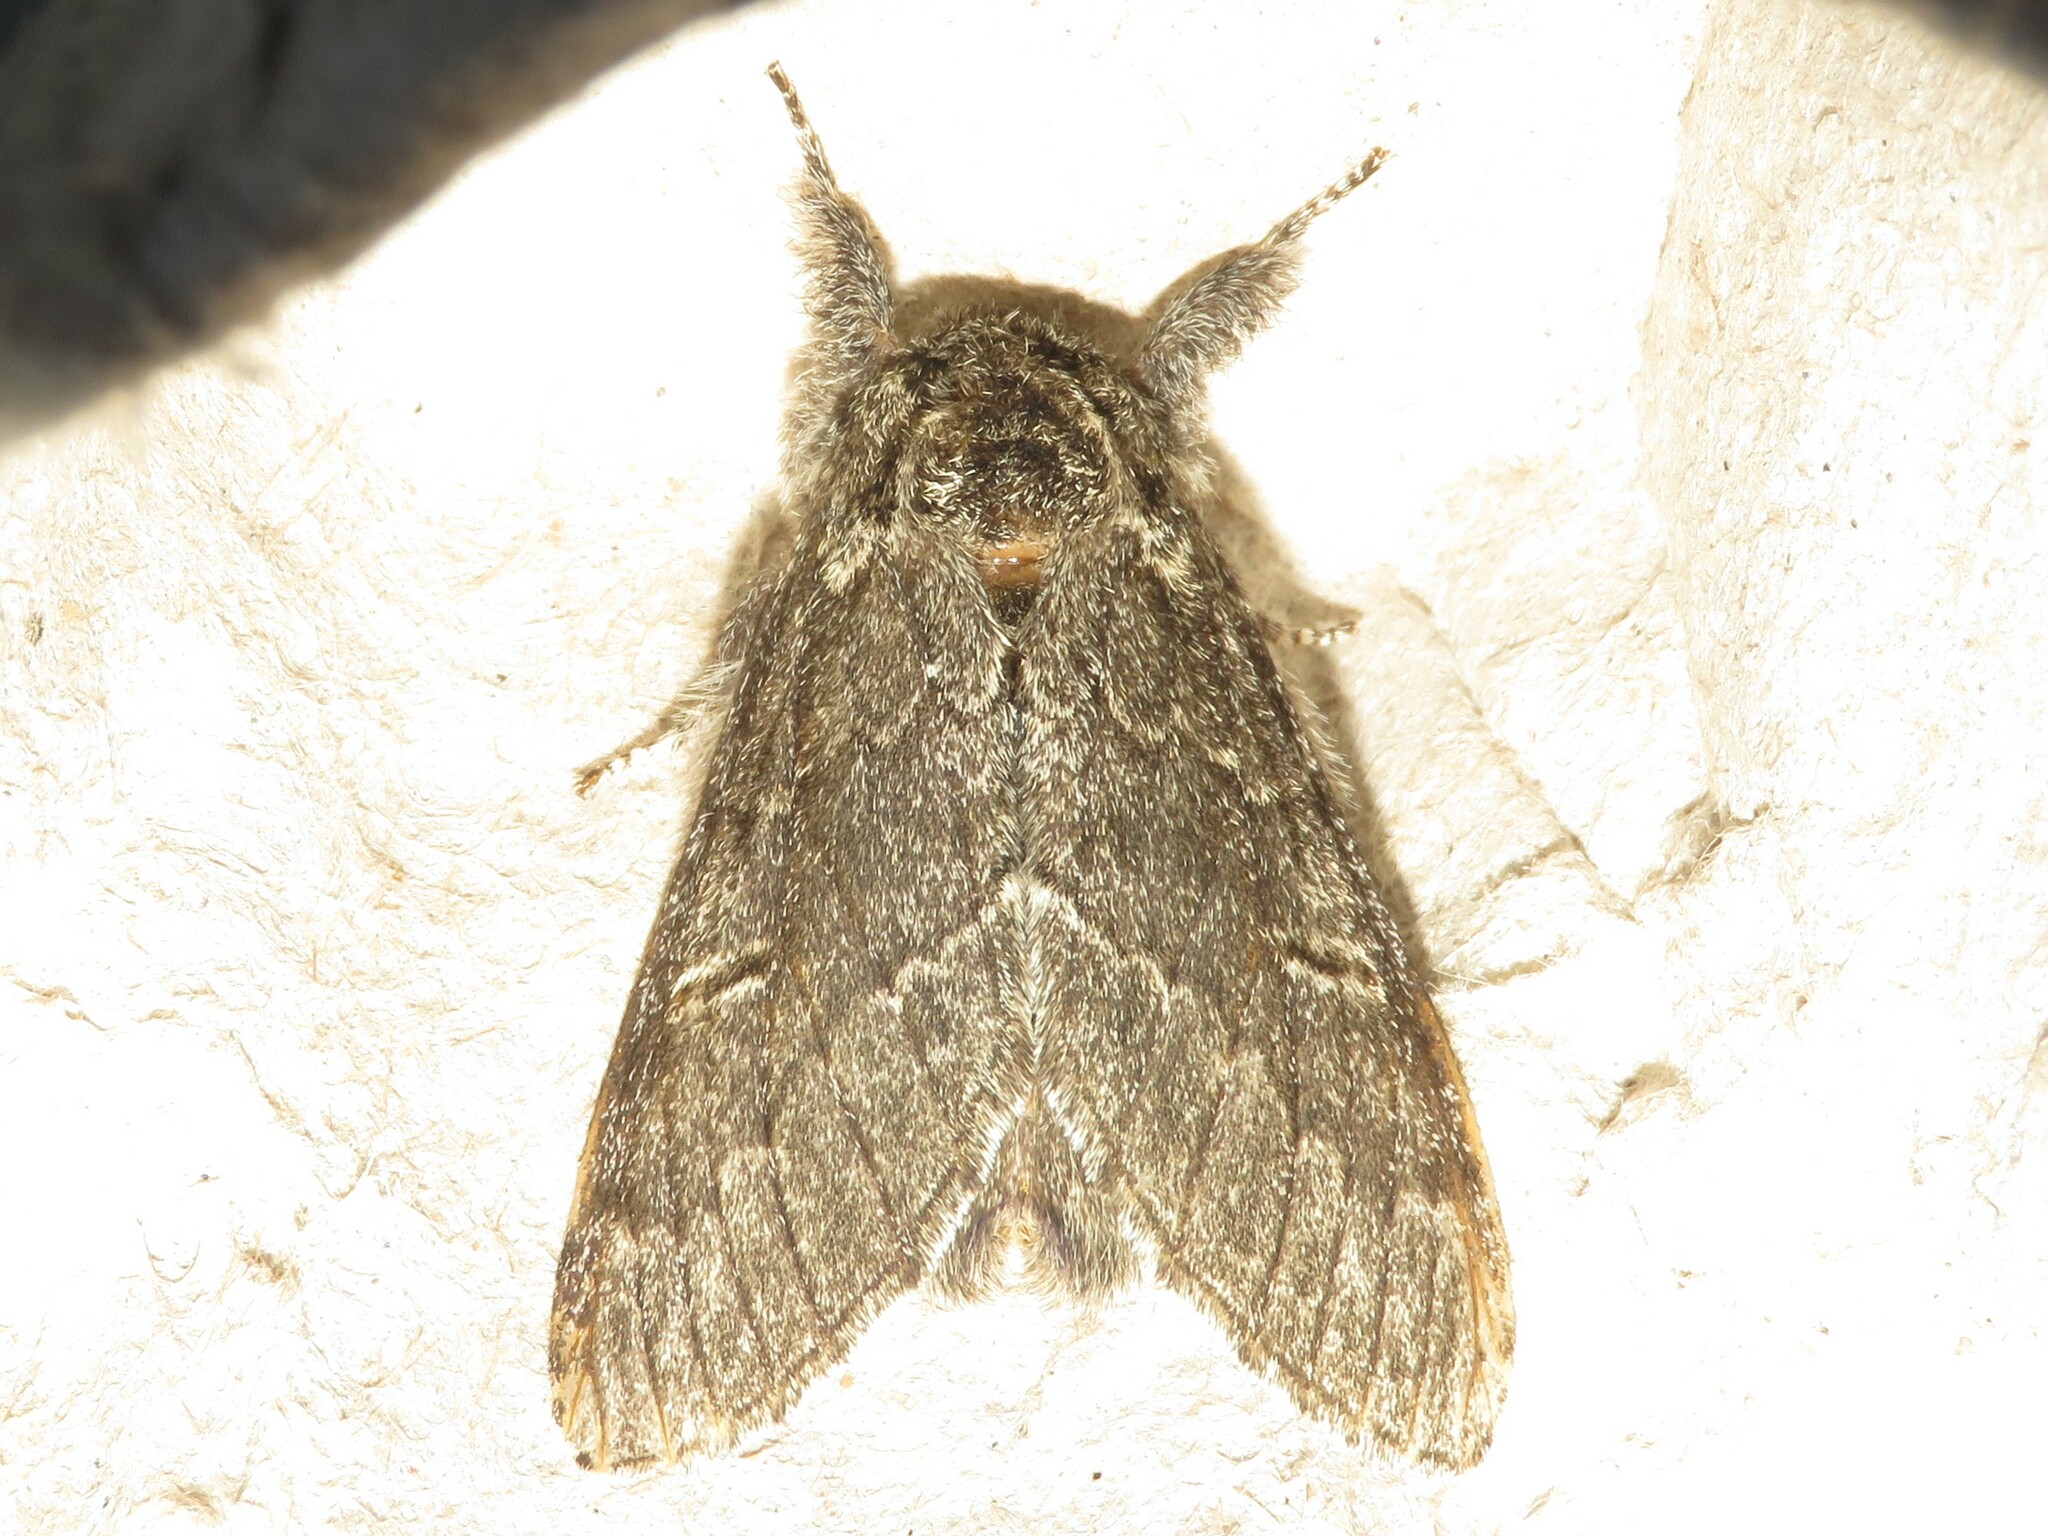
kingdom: Animalia
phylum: Arthropoda
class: Insecta
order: Lepidoptera
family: Notodontidae
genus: Notodonta
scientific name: Notodonta torva
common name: Large dark prominent
